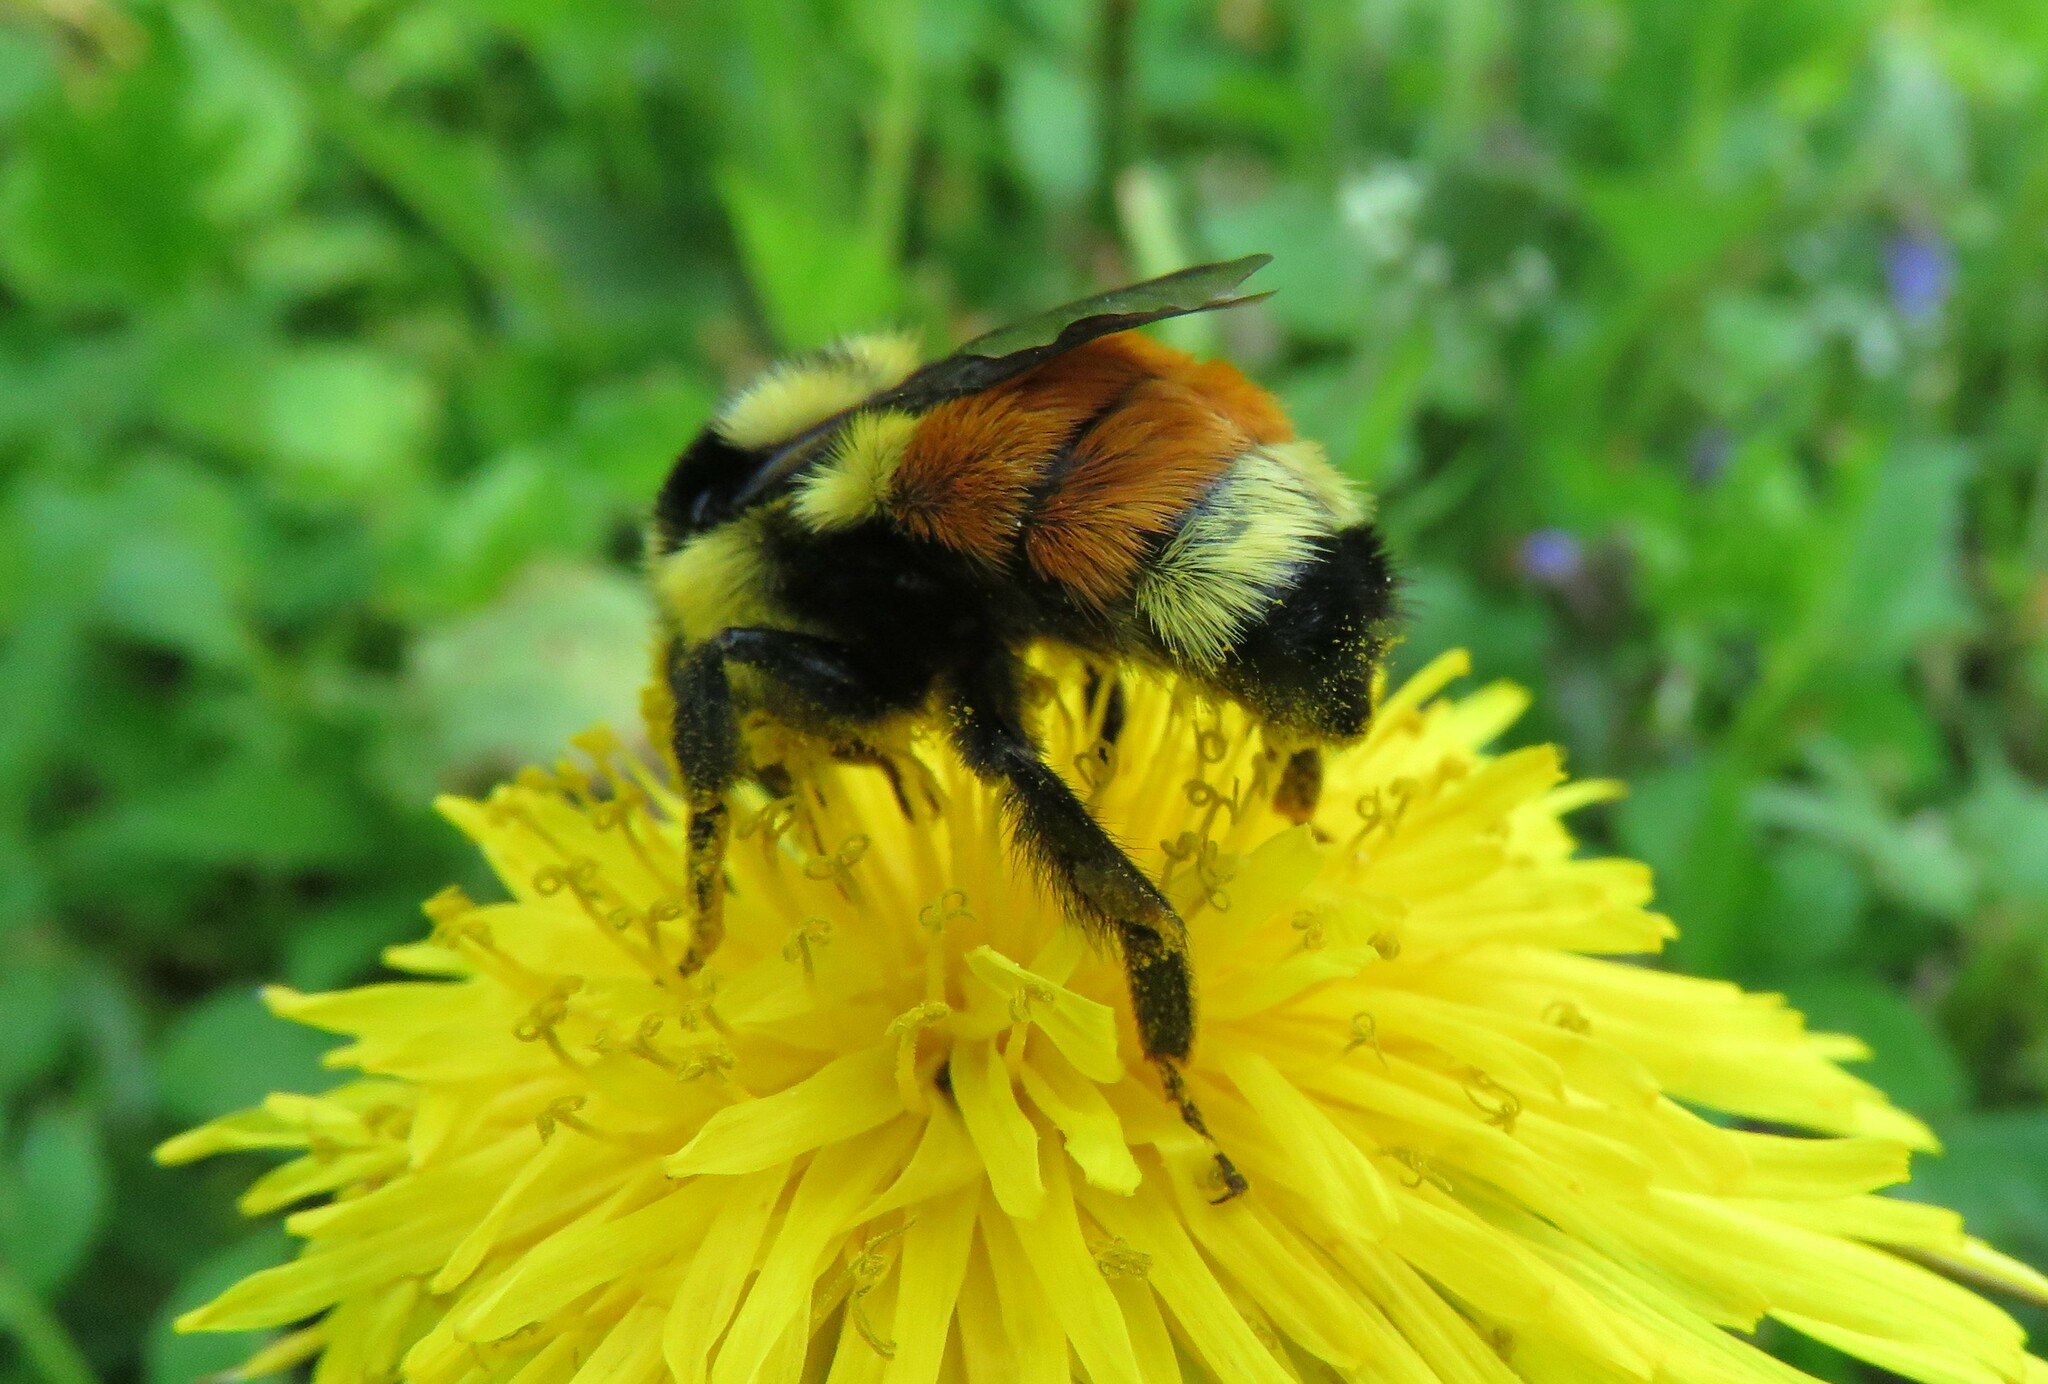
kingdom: Animalia
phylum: Arthropoda
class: Insecta
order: Hymenoptera
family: Apidae
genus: Bombus
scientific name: Bombus ternarius
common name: Tri-colored bumble bee
